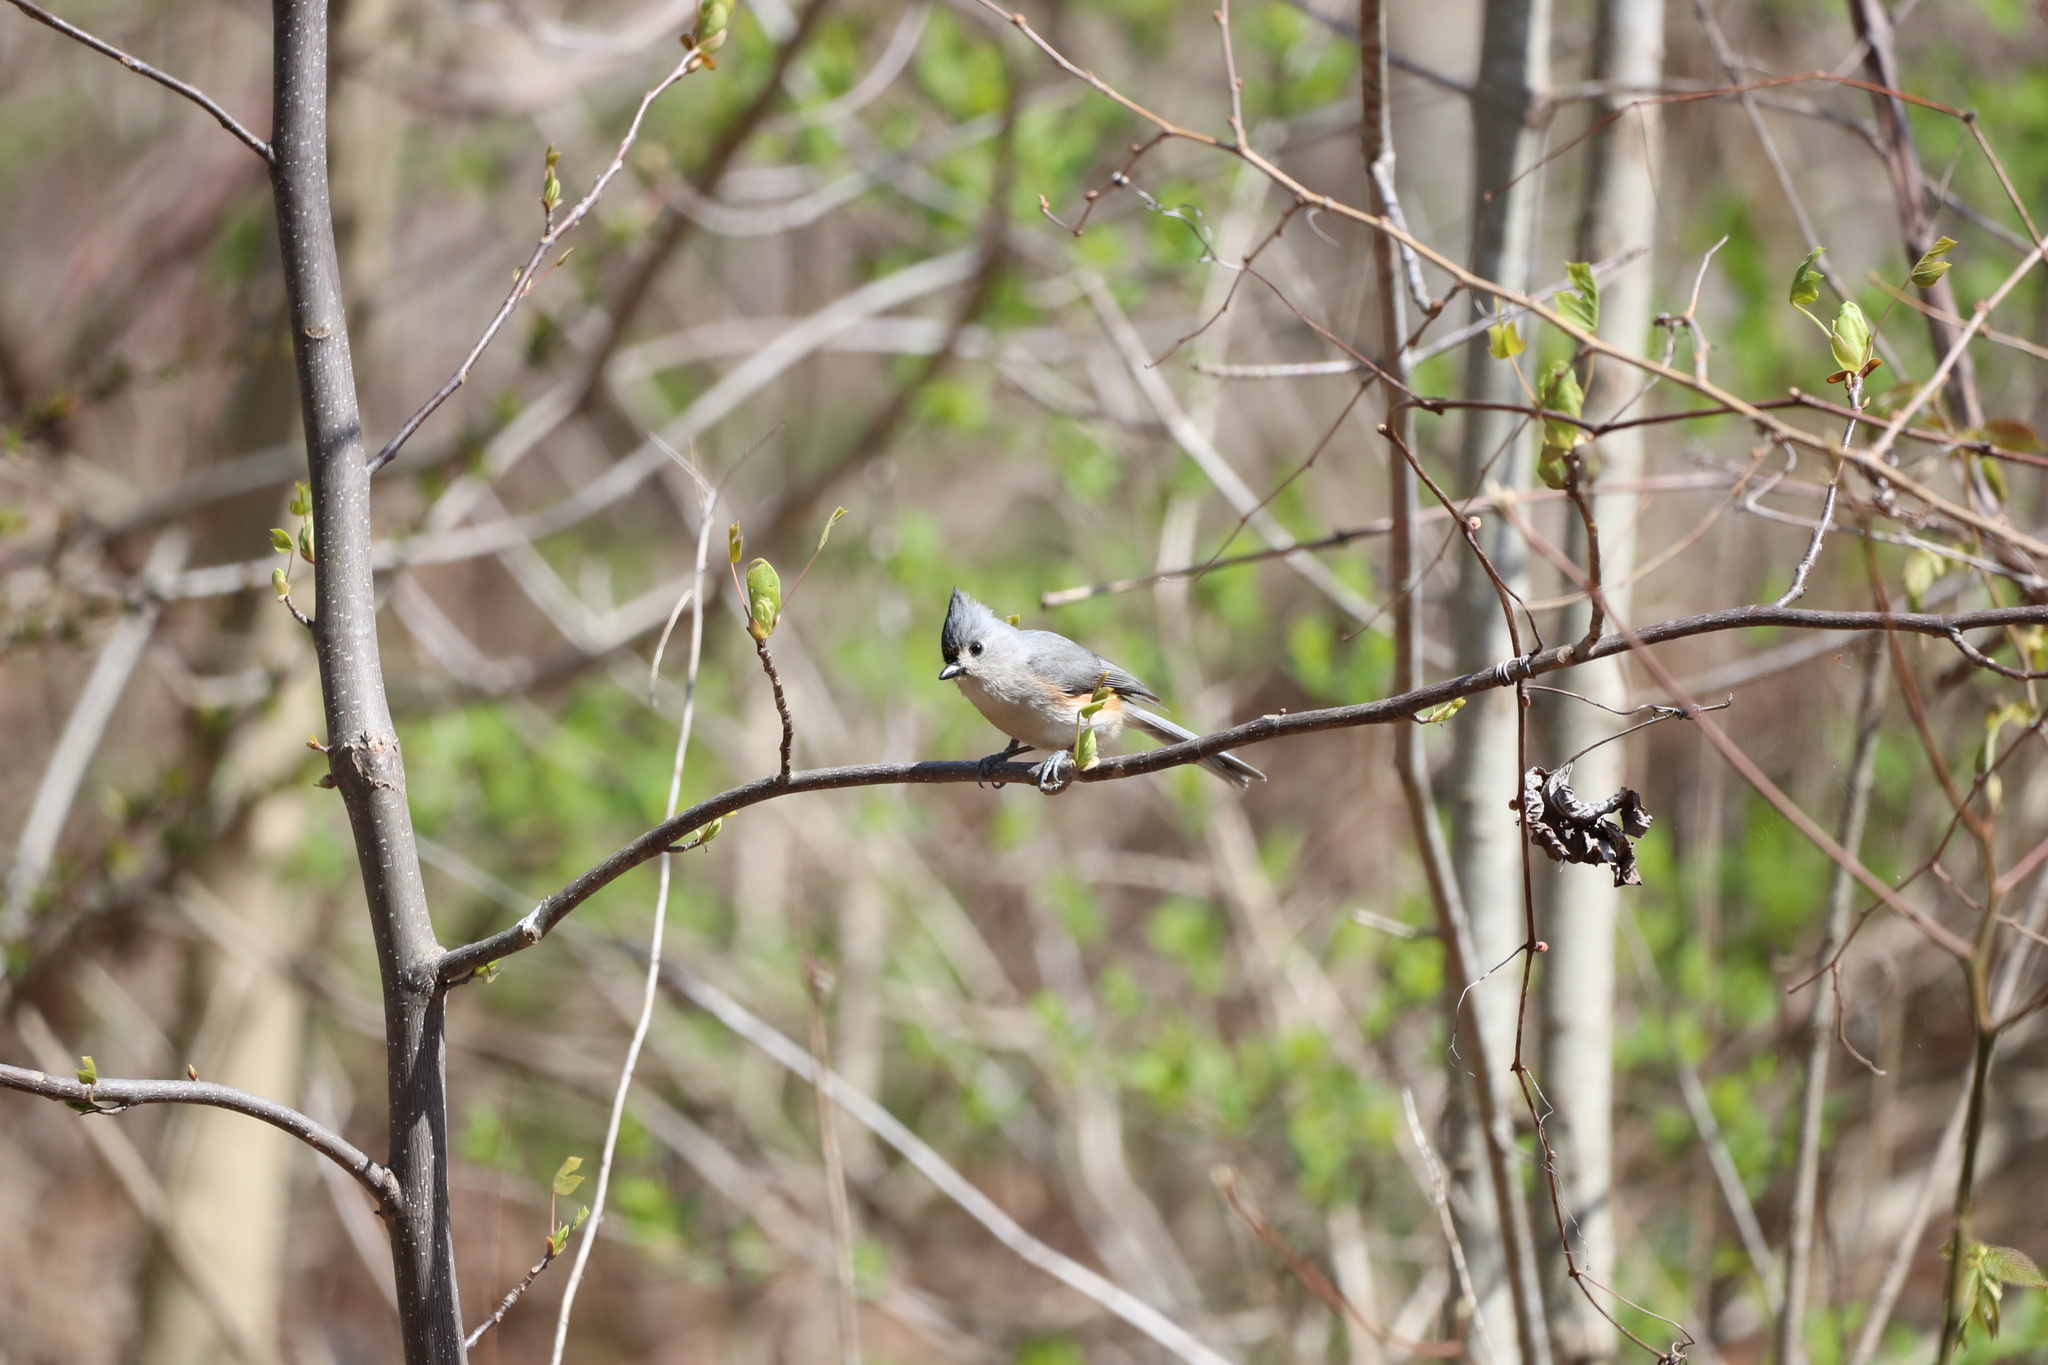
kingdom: Animalia
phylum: Chordata
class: Aves
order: Passeriformes
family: Paridae
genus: Baeolophus
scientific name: Baeolophus bicolor
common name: Tufted titmouse
